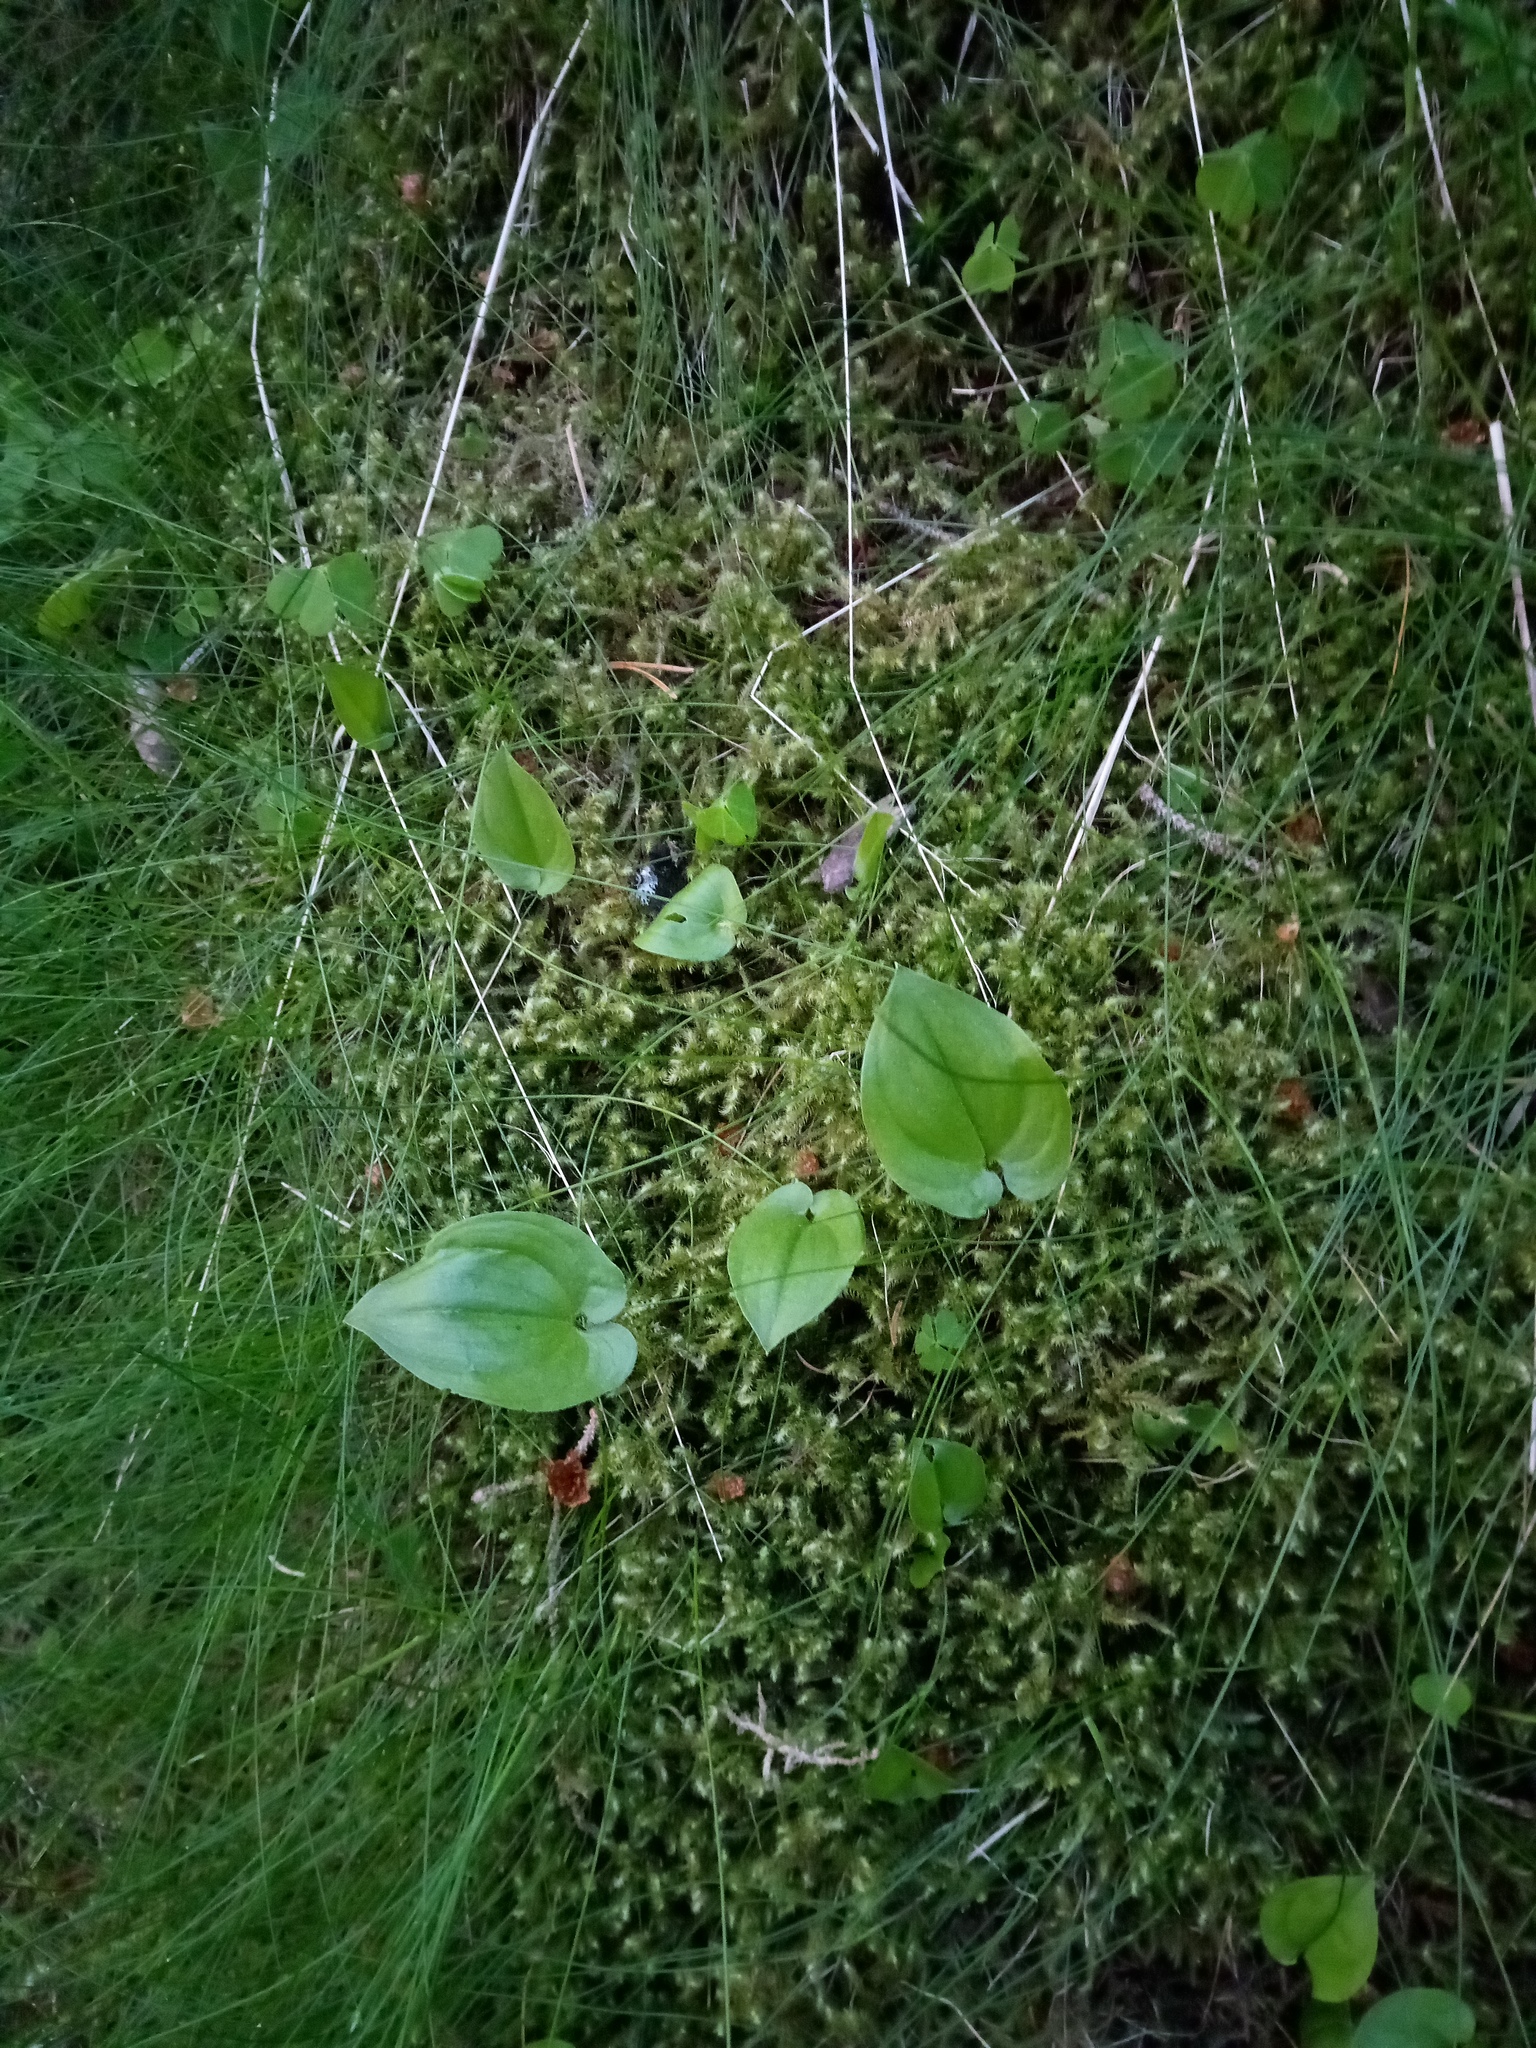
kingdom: Plantae
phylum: Tracheophyta
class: Liliopsida
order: Asparagales
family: Asparagaceae
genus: Maianthemum
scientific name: Maianthemum bifolium
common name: May lily
